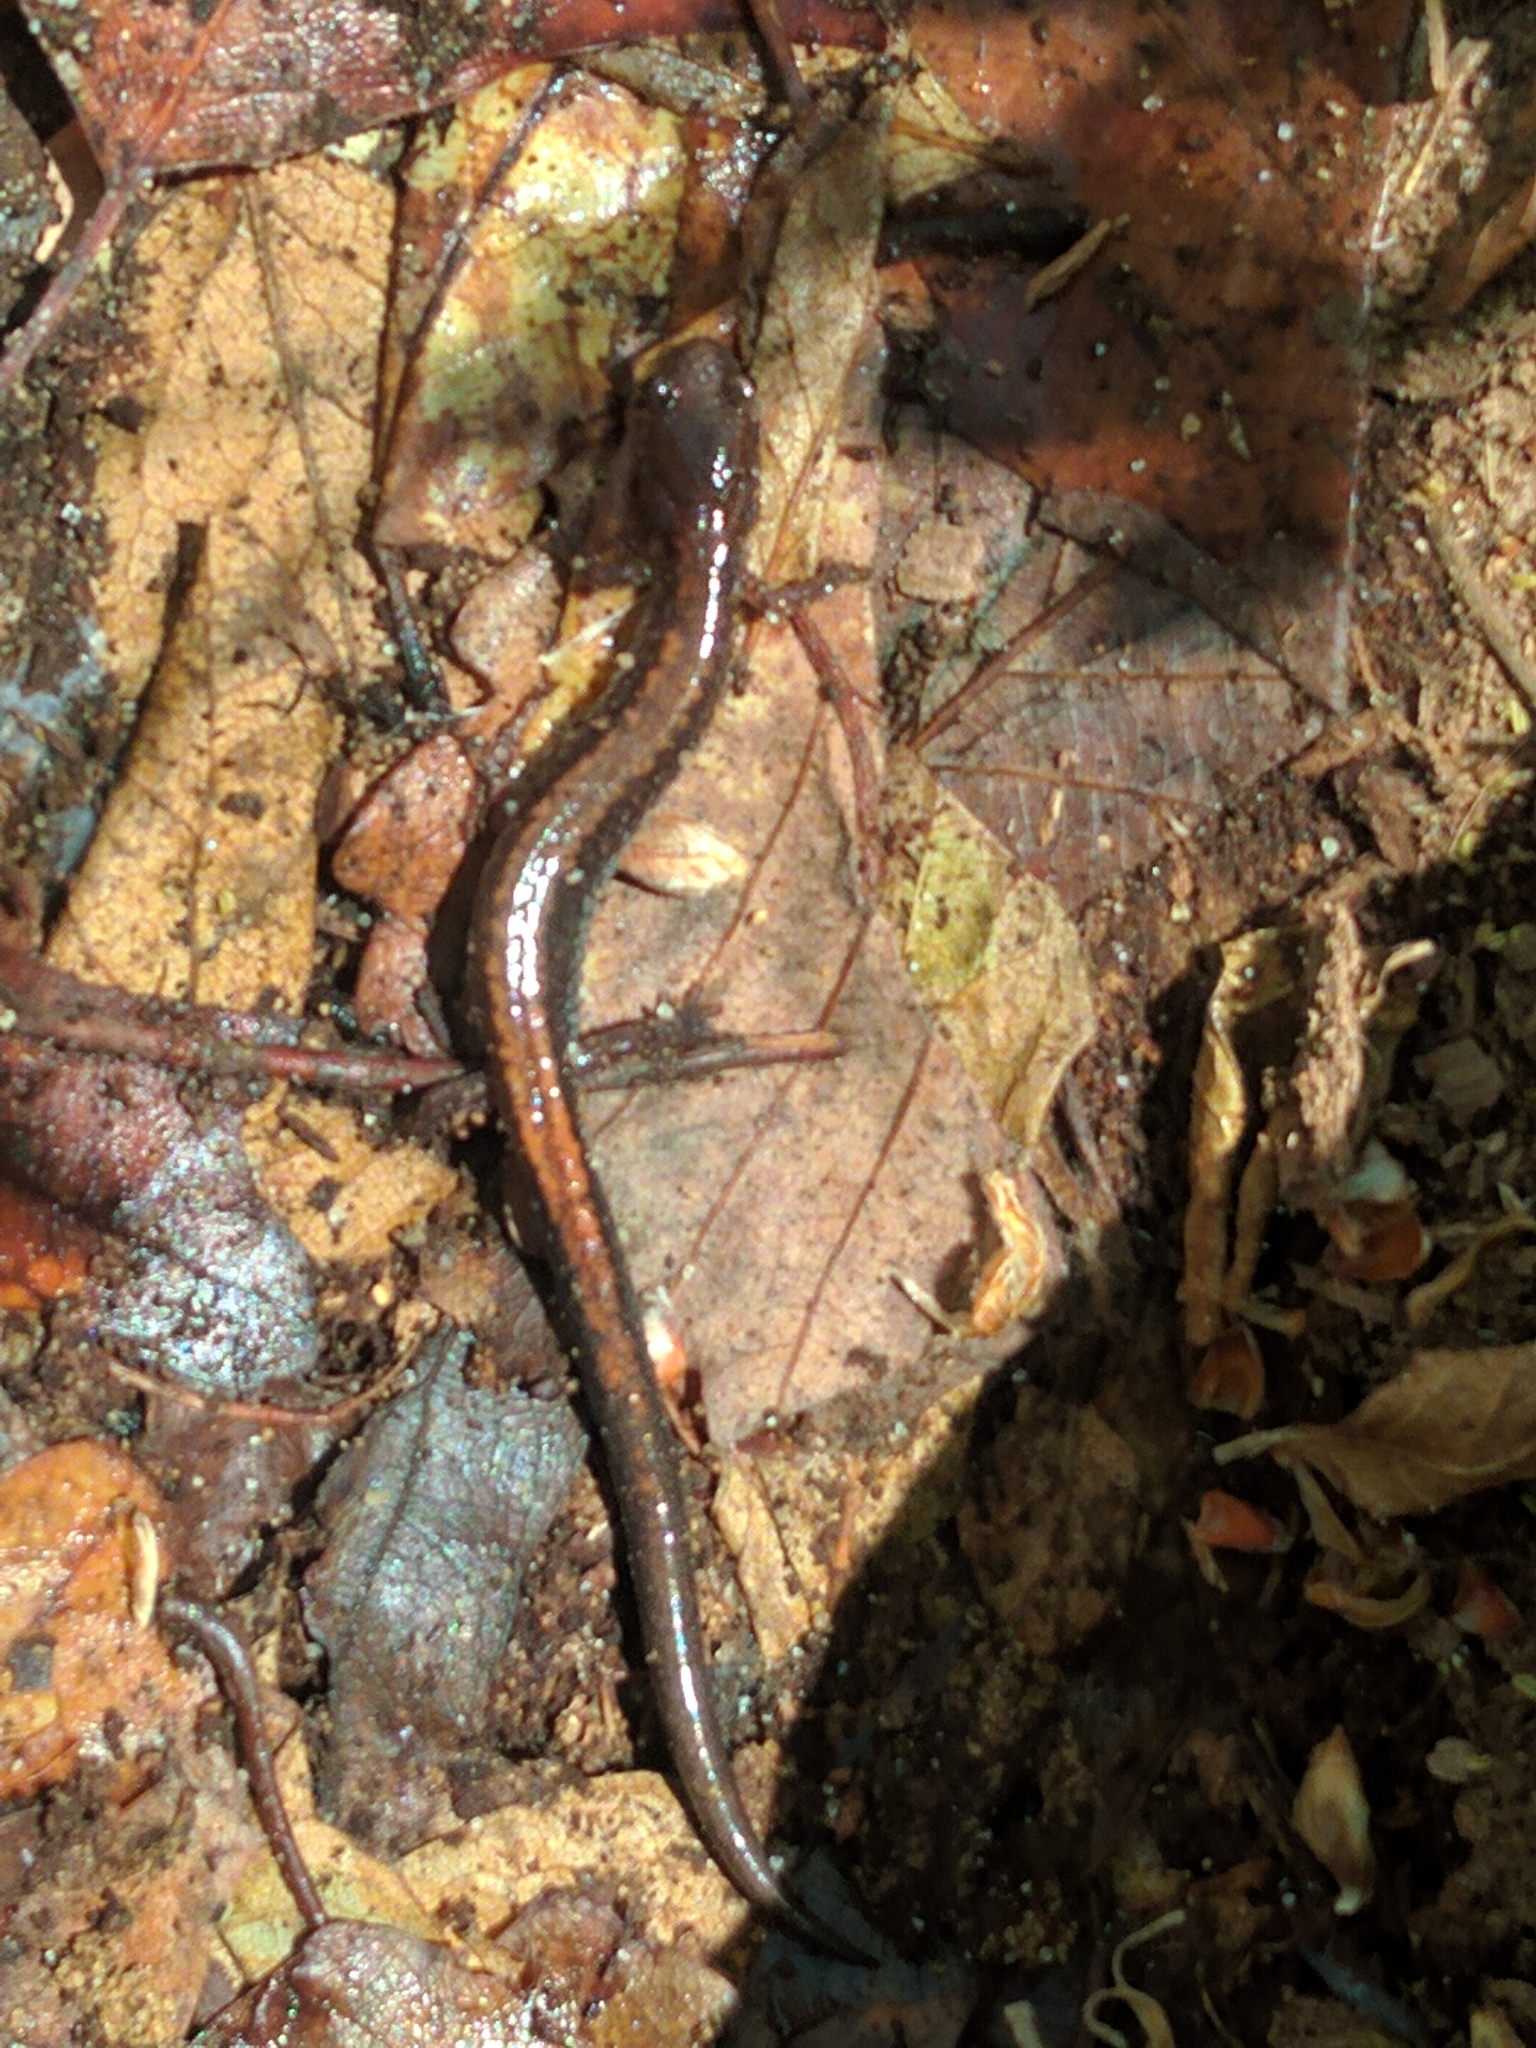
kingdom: Animalia
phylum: Chordata
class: Amphibia
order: Caudata
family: Plethodontidae
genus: Plethodon
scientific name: Plethodon cinereus
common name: Redback salamander
